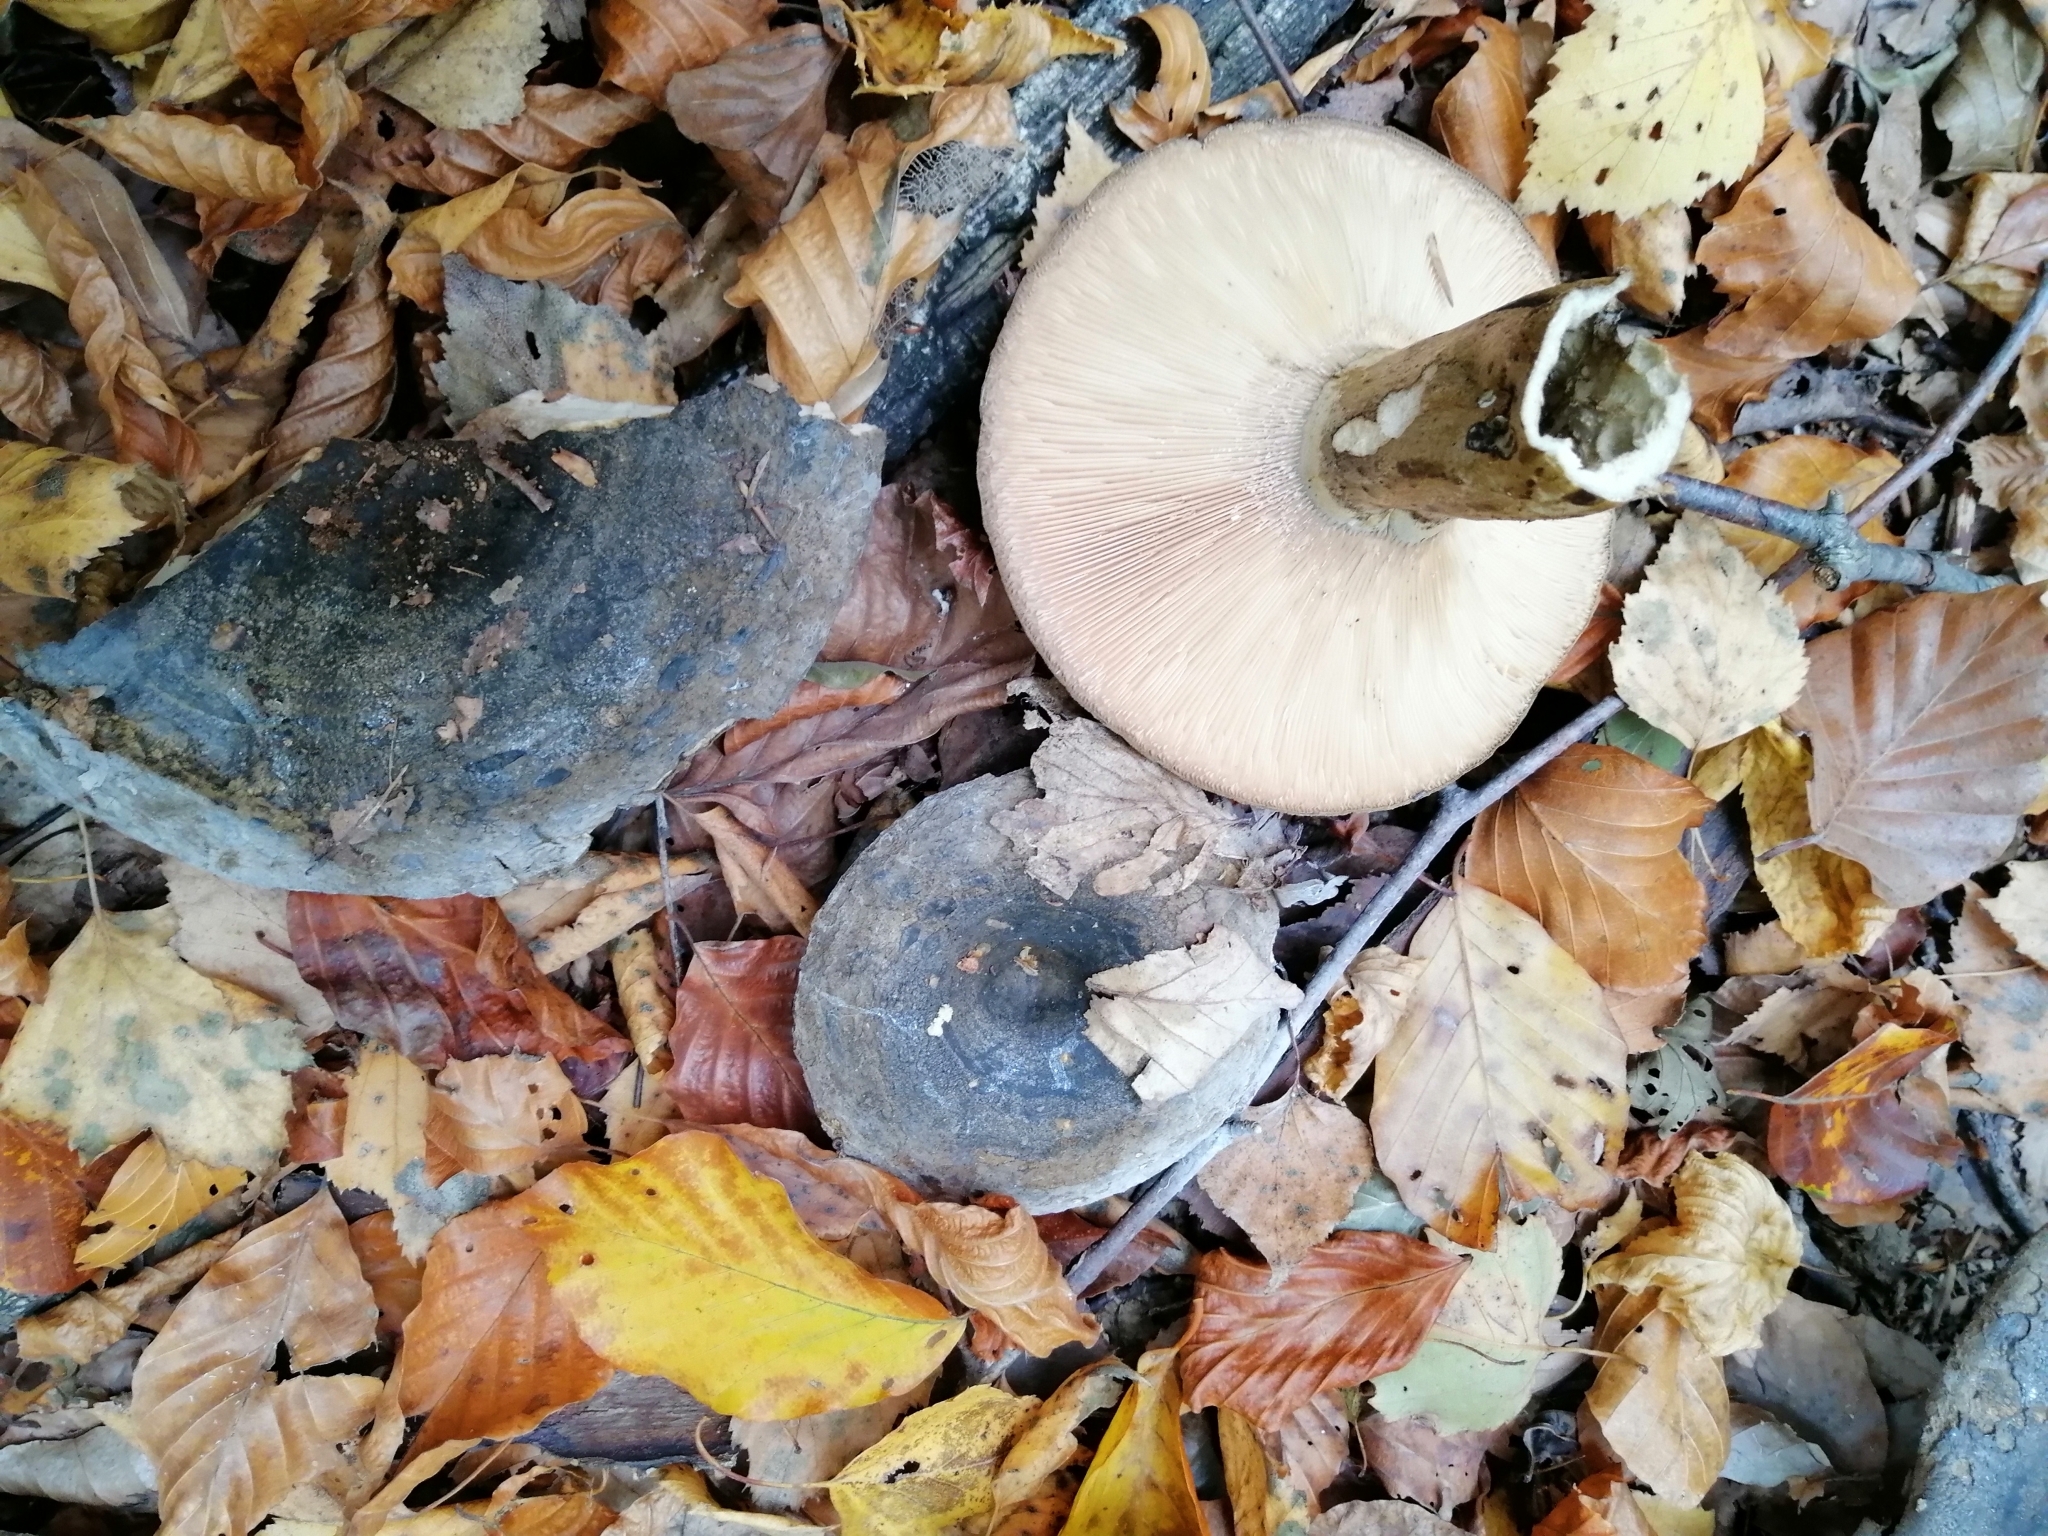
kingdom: Fungi
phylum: Basidiomycota
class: Agaricomycetes
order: Russulales
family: Russulaceae
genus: Lactarius
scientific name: Lactarius turpis
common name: Ugly milk-cap
